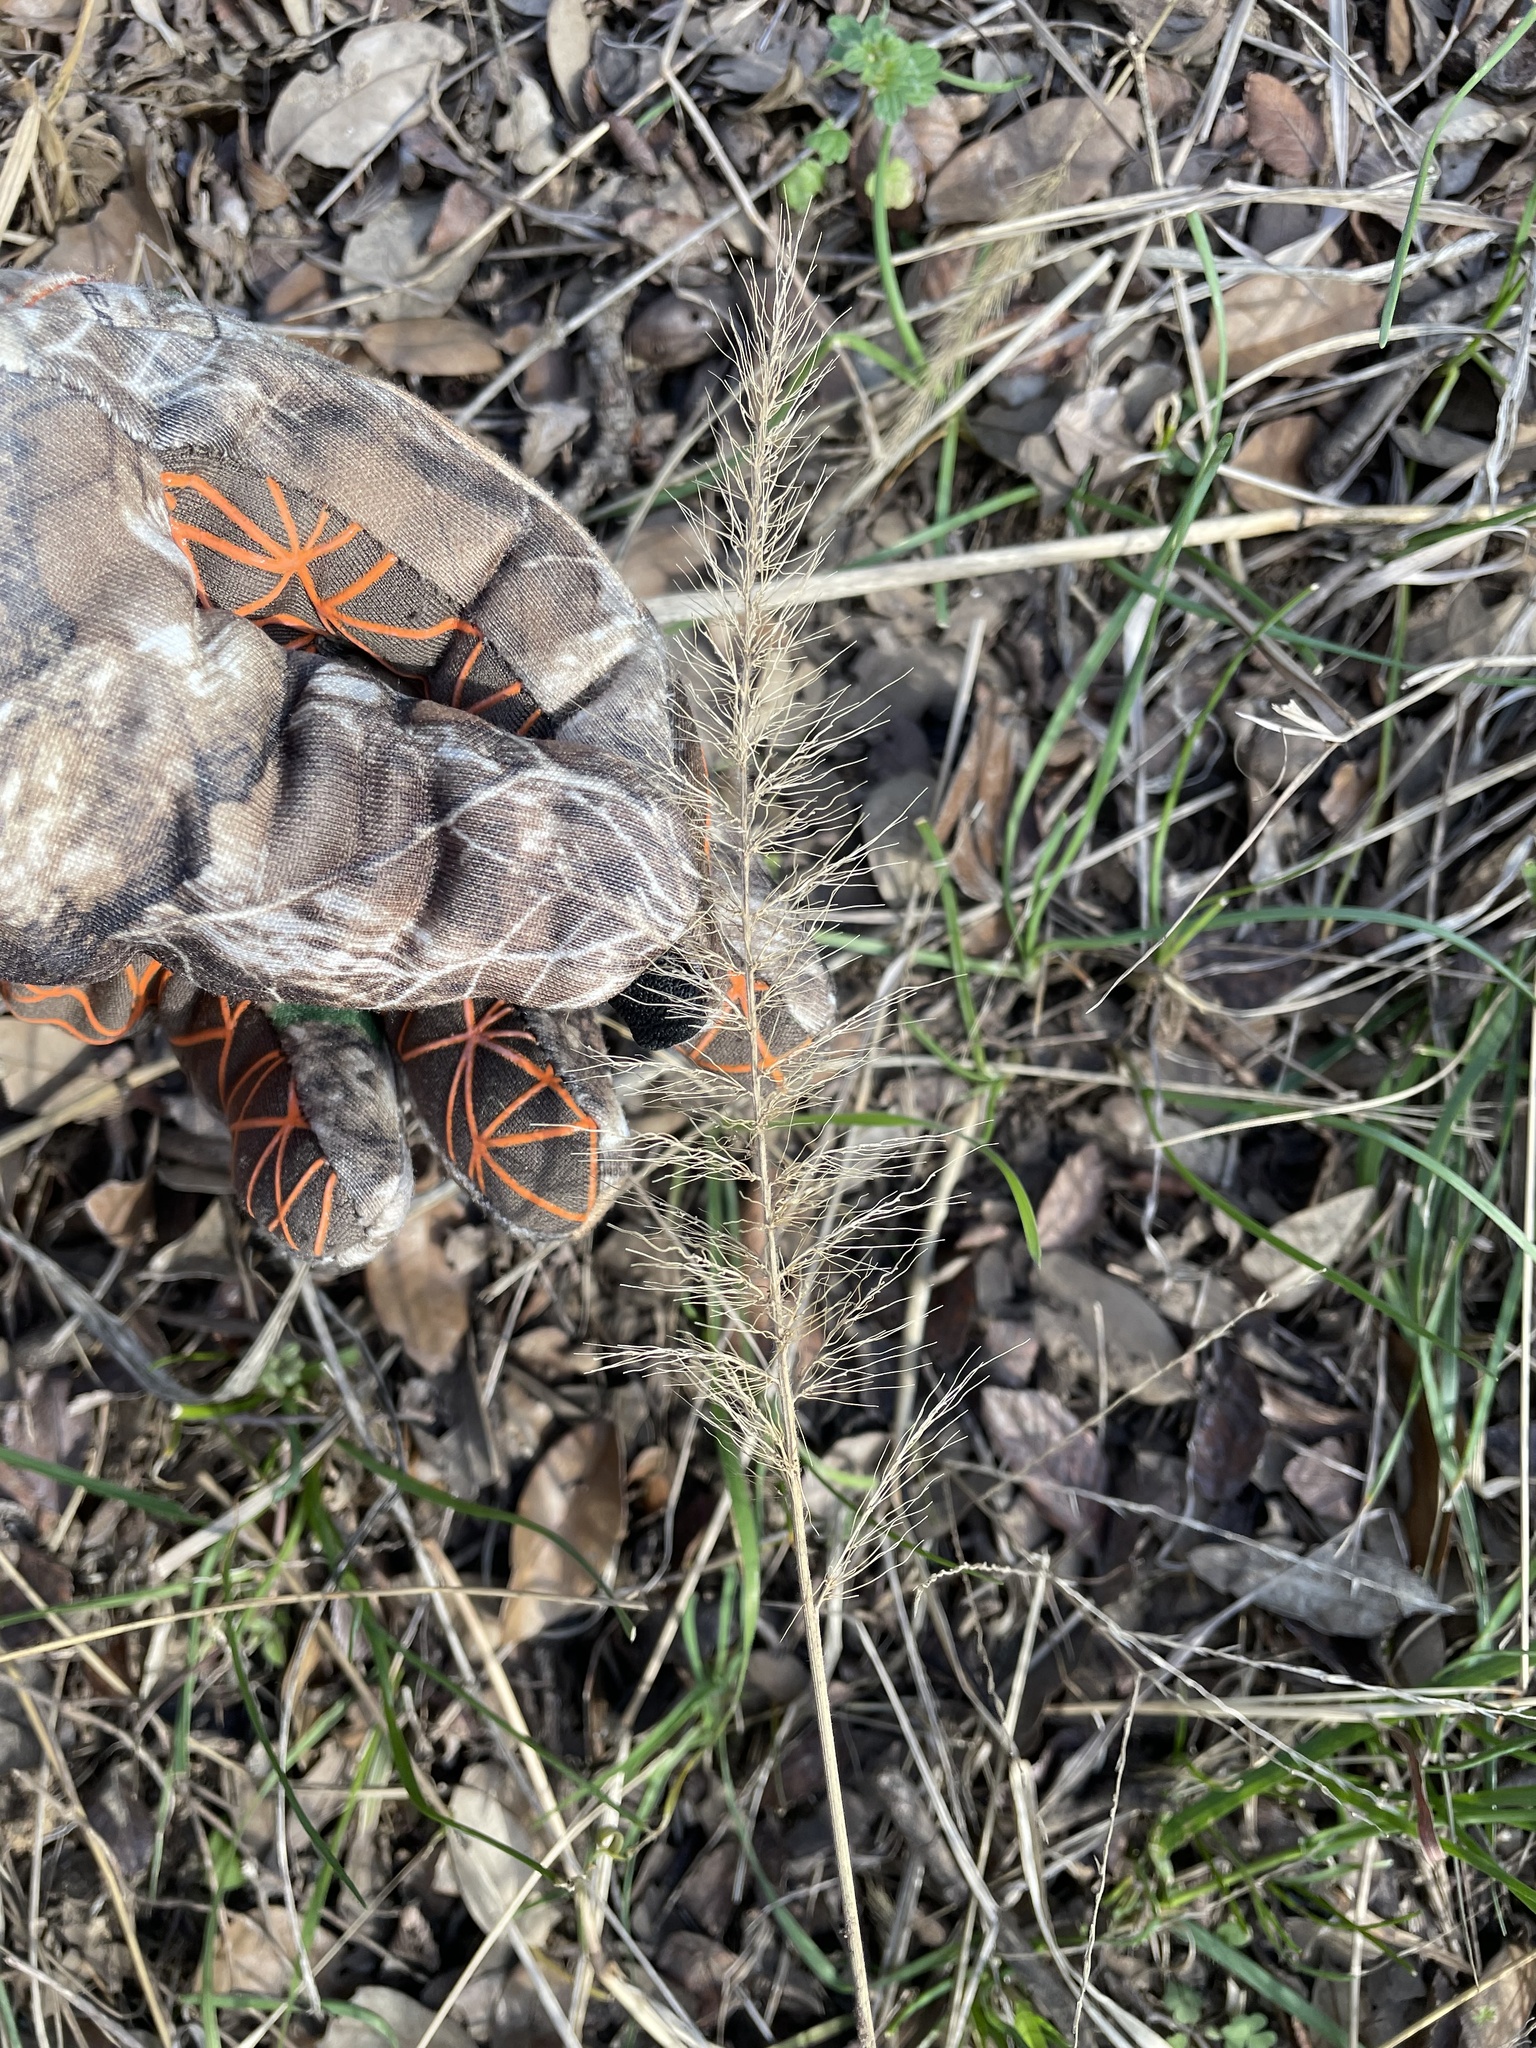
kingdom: Plantae
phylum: Tracheophyta
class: Liliopsida
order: Poales
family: Poaceae
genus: Setaria
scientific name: Setaria scheelei
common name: Southwestern bristle grass
